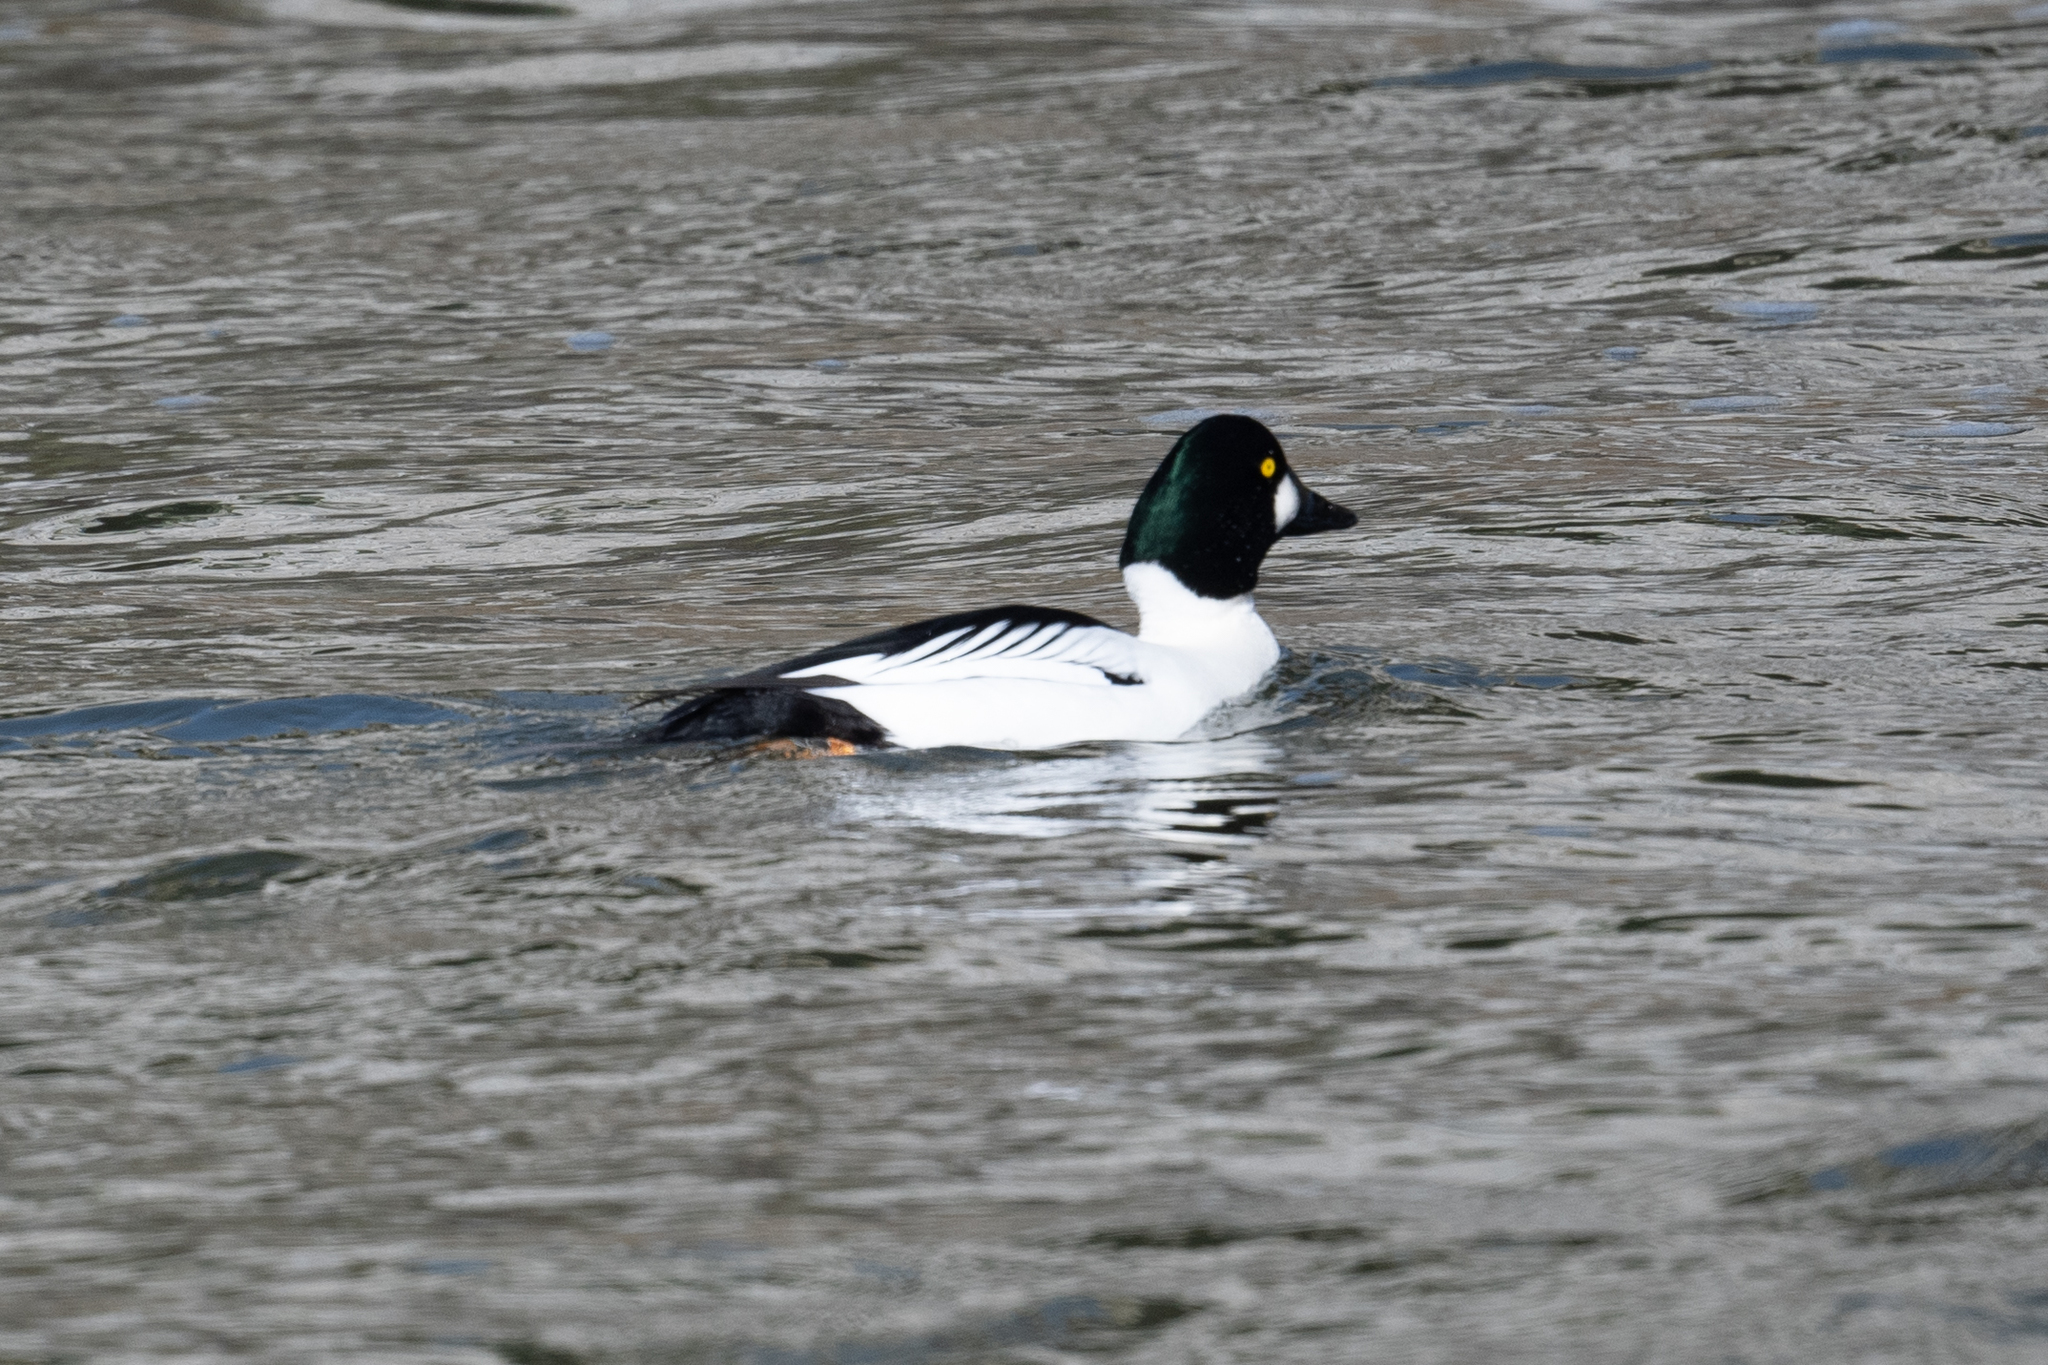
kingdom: Animalia
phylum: Chordata
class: Aves
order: Anseriformes
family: Anatidae
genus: Bucephala
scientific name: Bucephala clangula
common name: Common goldeneye
